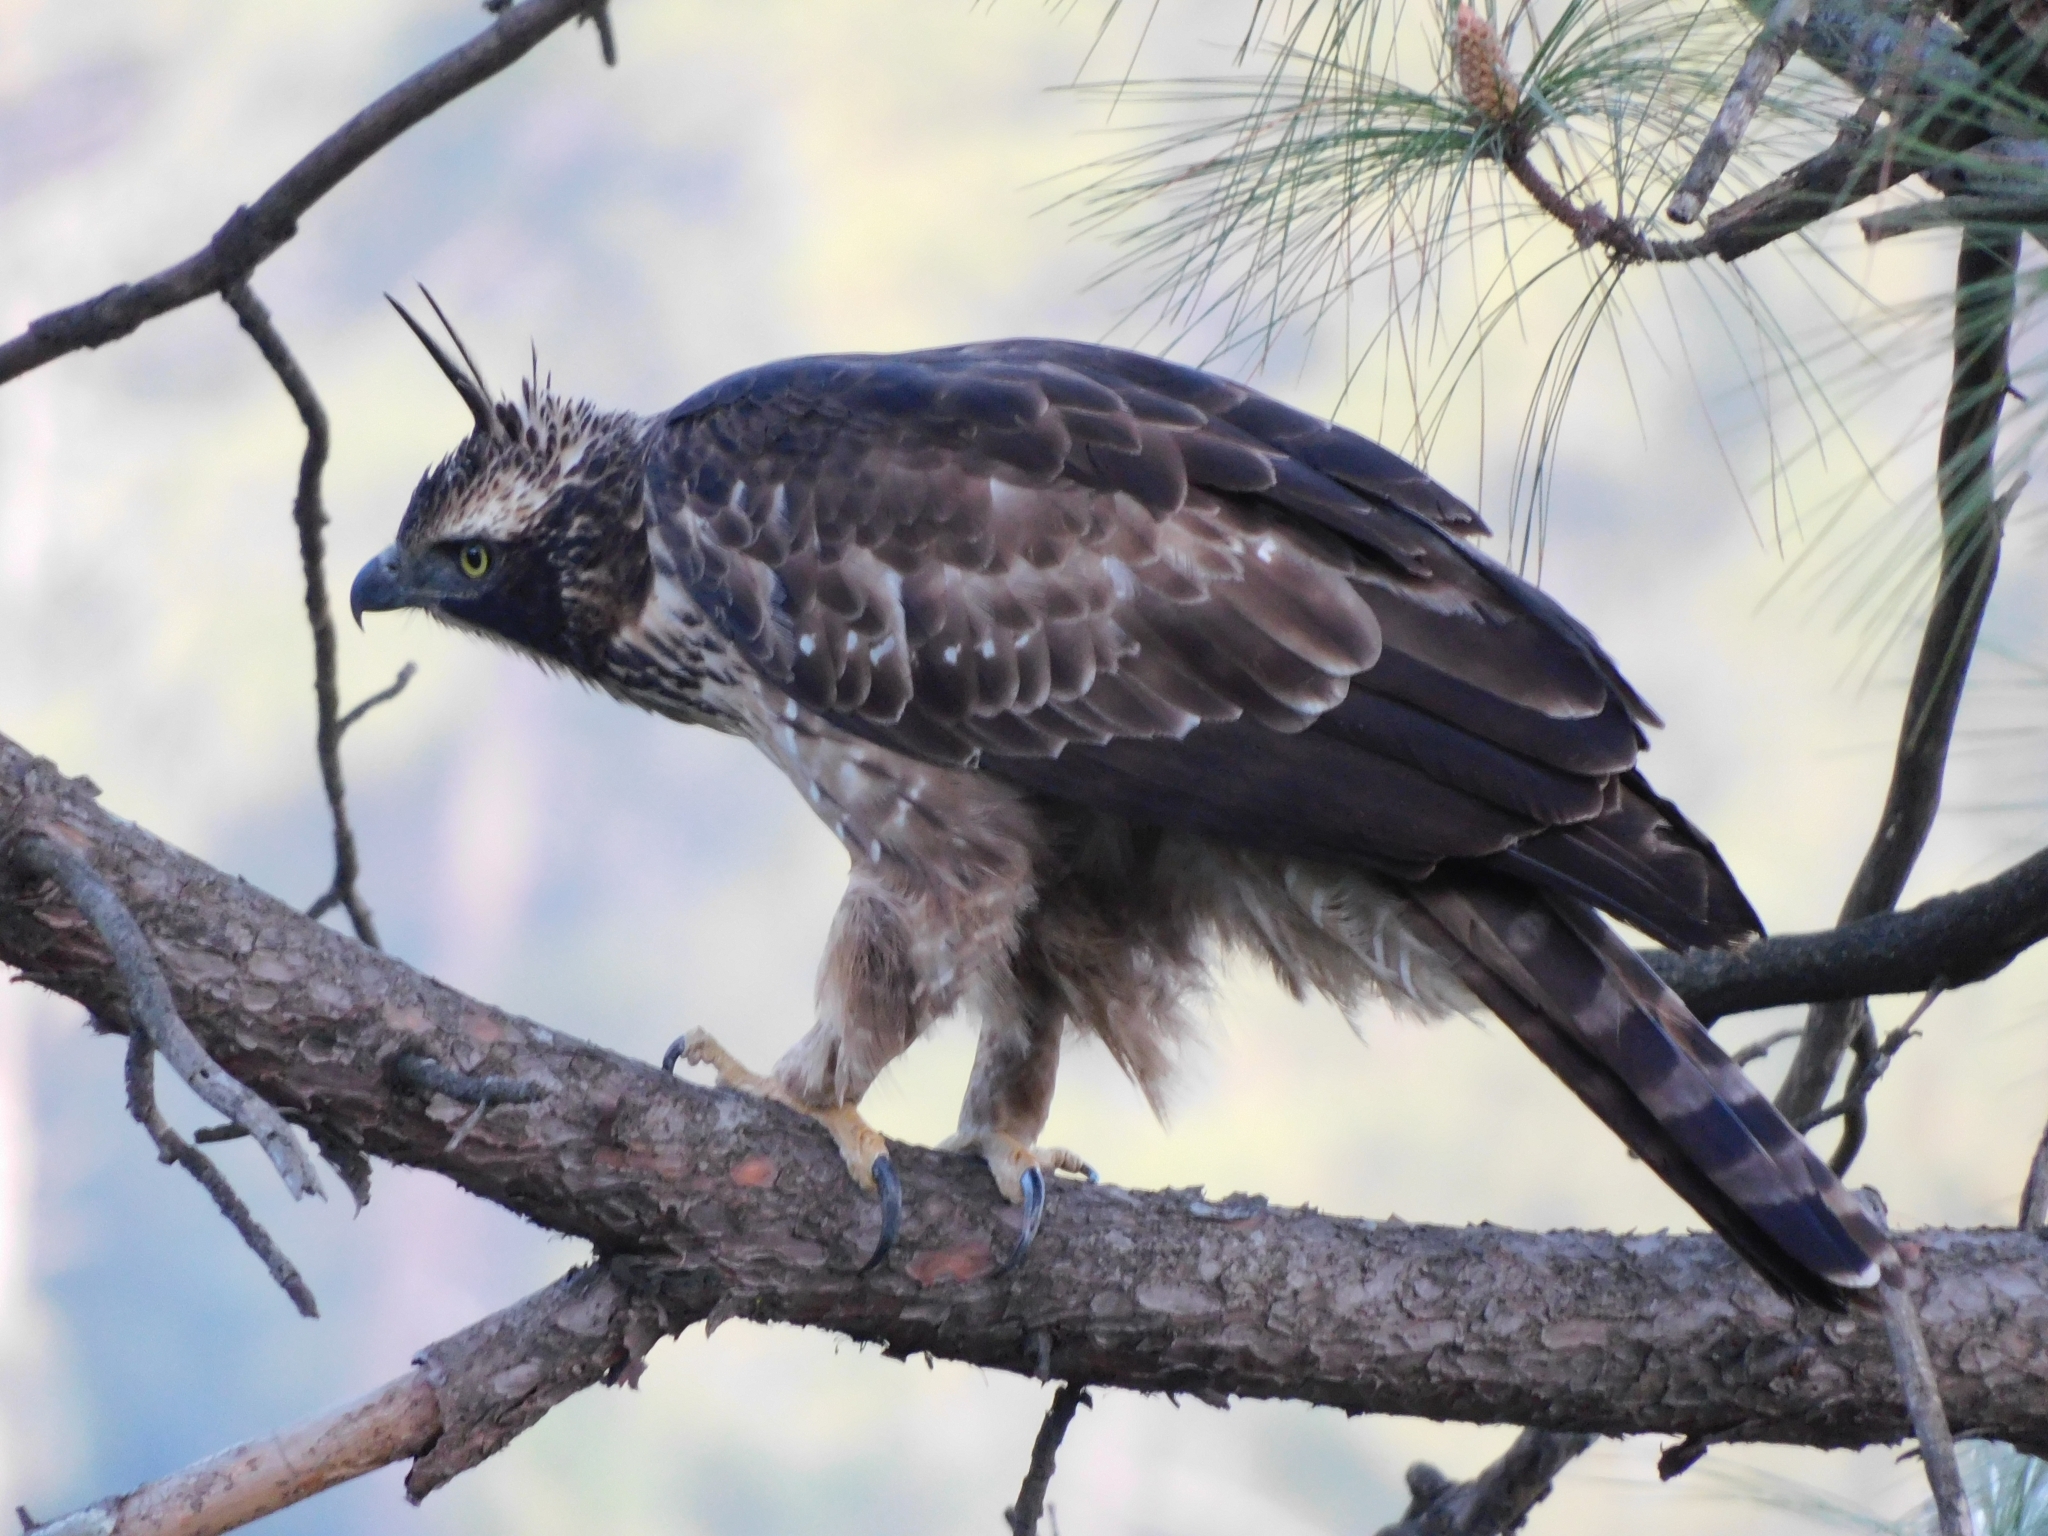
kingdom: Animalia
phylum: Chordata
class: Aves
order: Accipitriformes
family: Accipitridae
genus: Nisaetus
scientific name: Nisaetus nipalensis
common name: Mountain hawk-eagle
